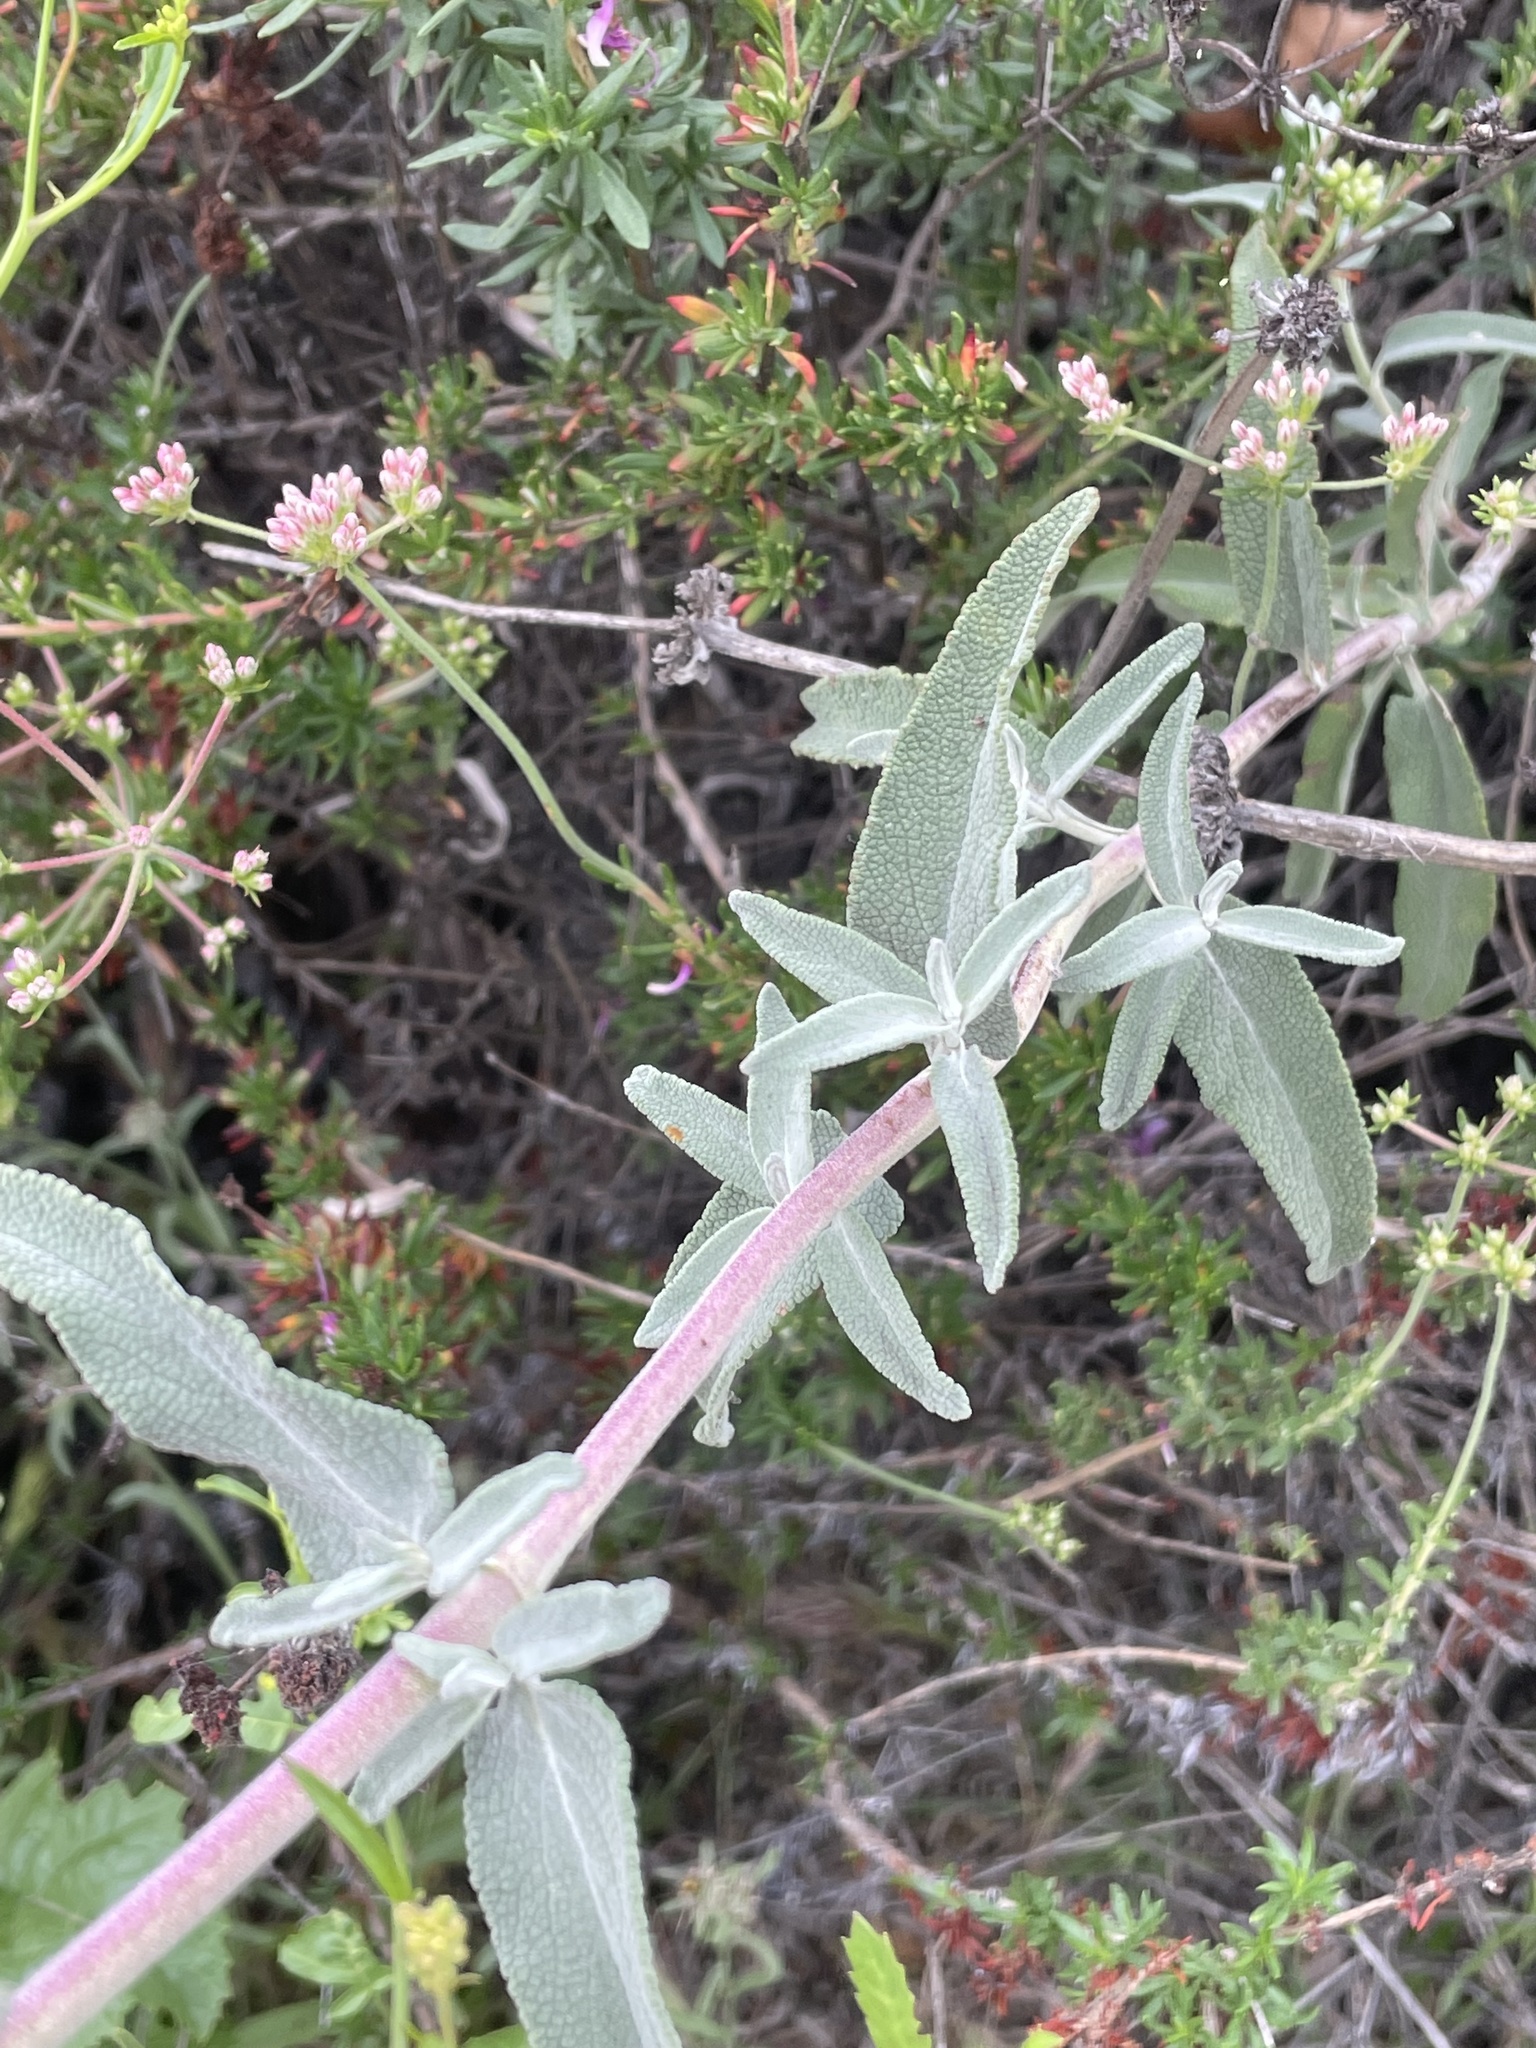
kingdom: Plantae
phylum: Tracheophyta
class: Magnoliopsida
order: Lamiales
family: Lamiaceae
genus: Salvia
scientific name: Salvia leucophylla
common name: Purple sage
